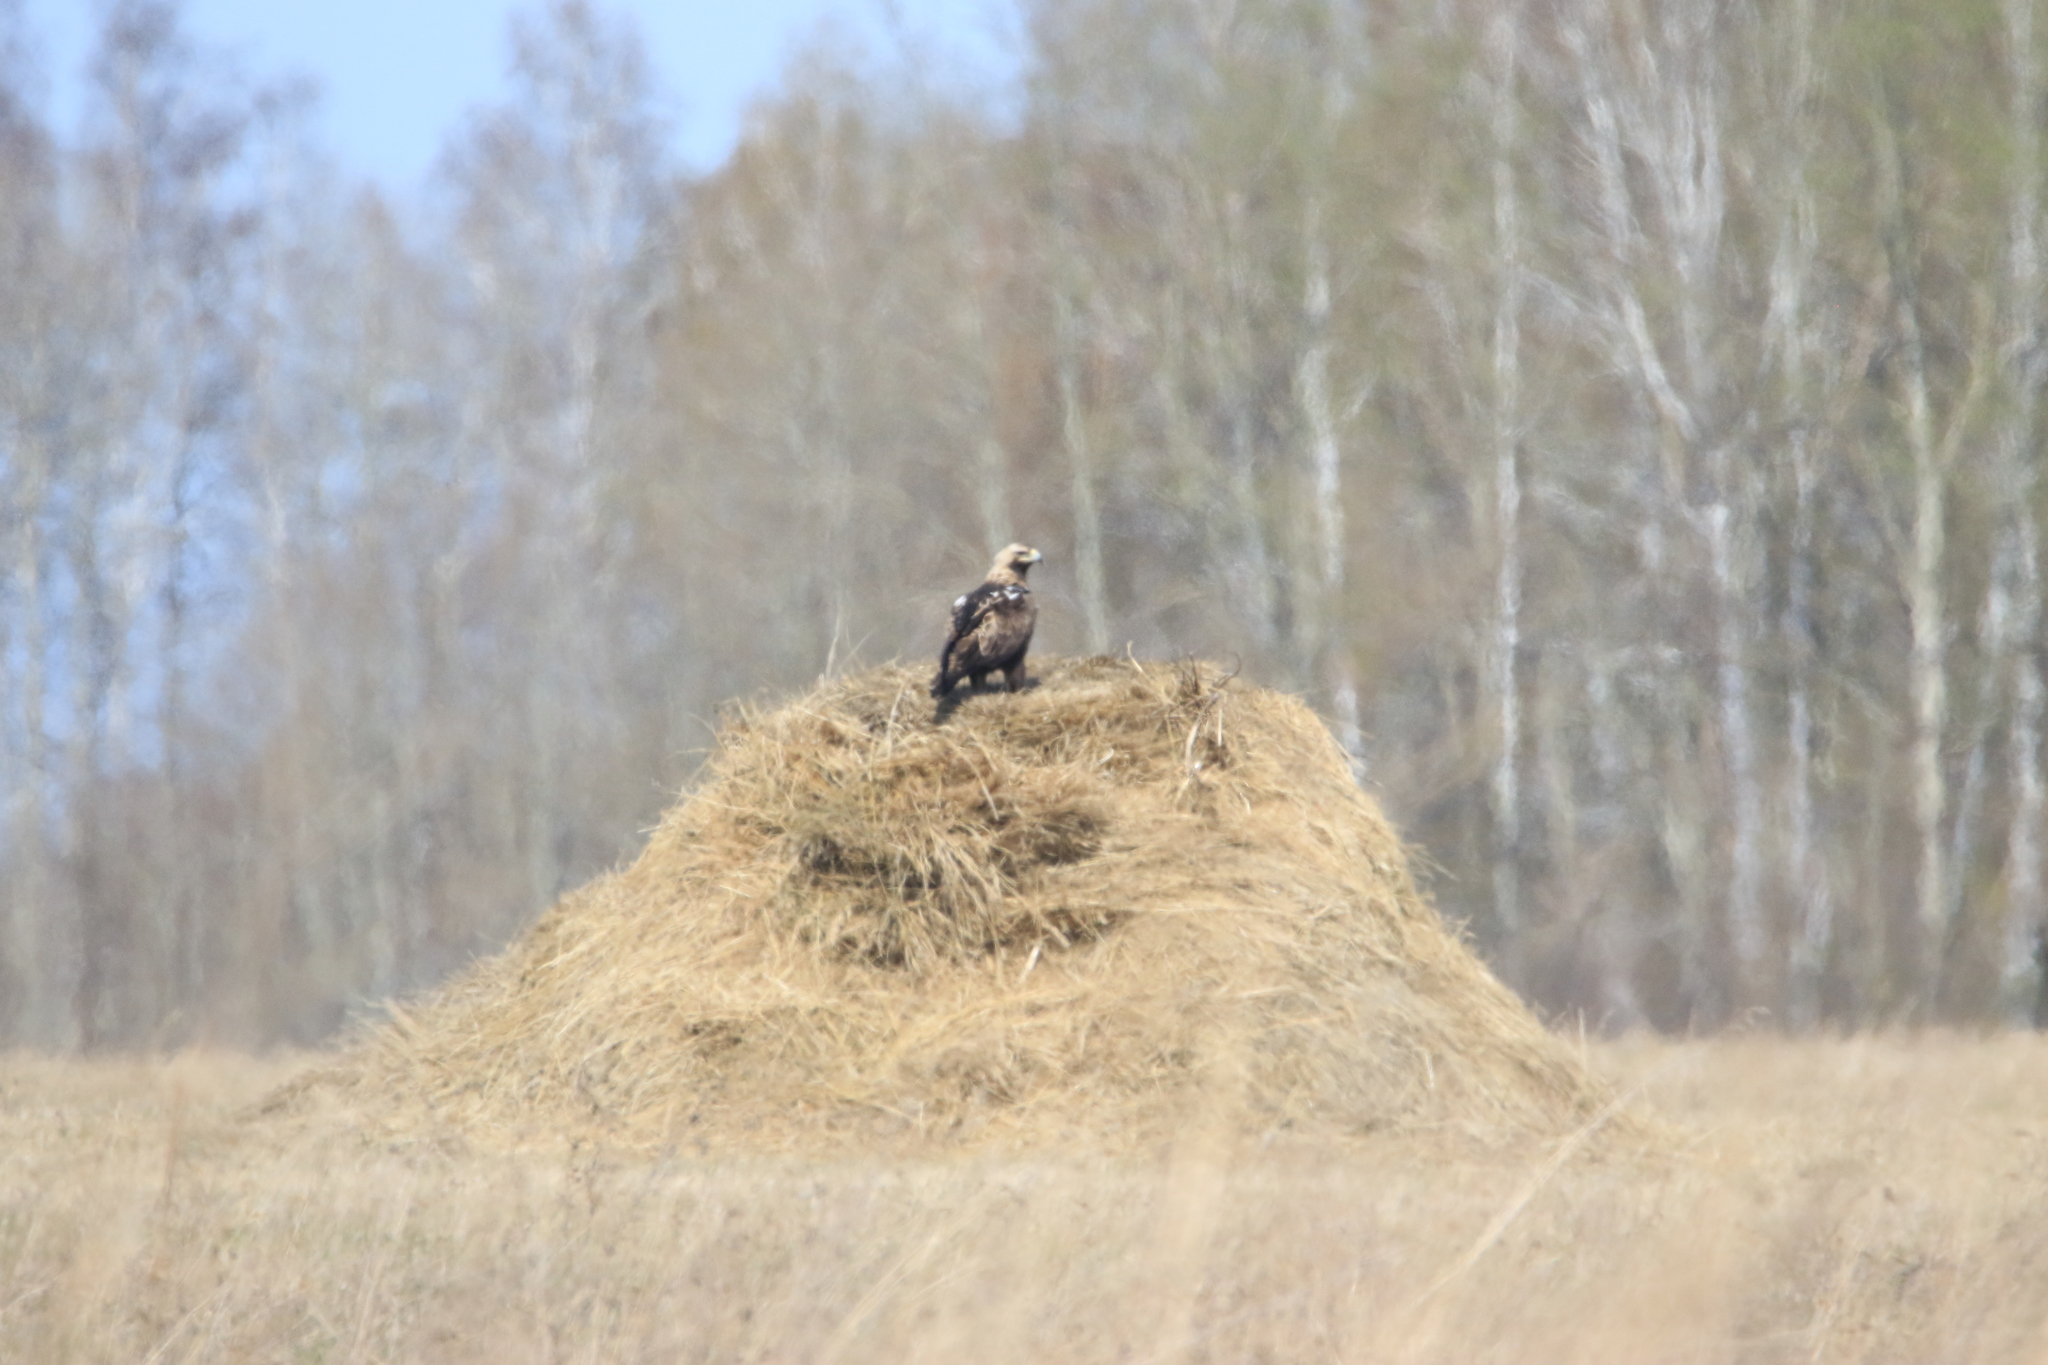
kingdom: Animalia
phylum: Chordata
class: Aves
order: Accipitriformes
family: Accipitridae
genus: Aquila
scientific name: Aquila heliaca
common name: Eastern imperial eagle
